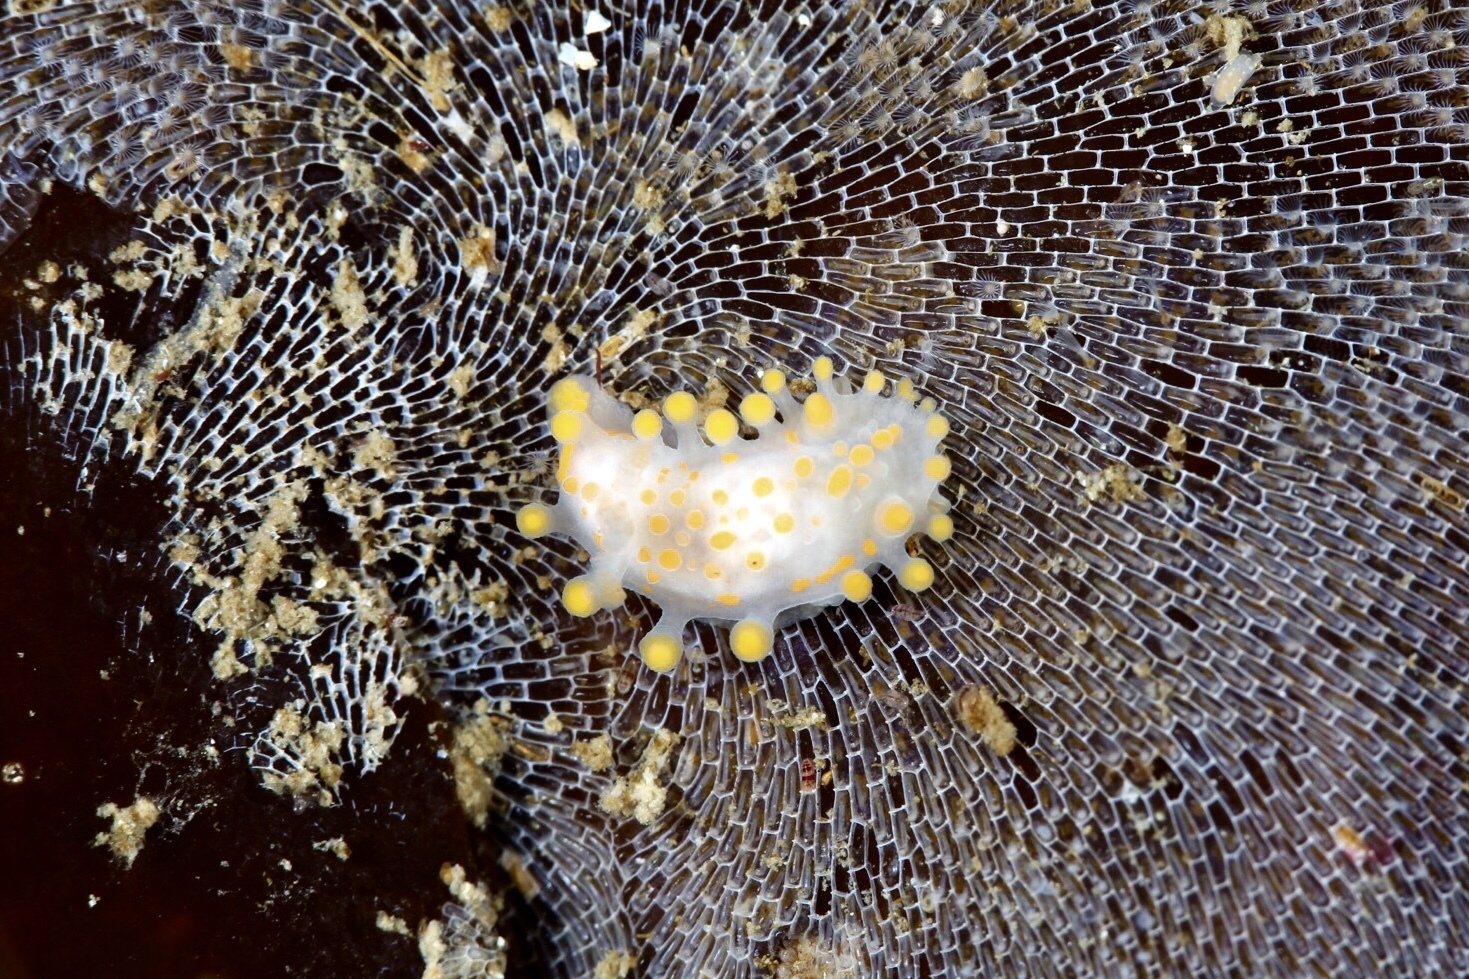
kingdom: Animalia
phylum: Mollusca
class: Gastropoda
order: Nudibranchia
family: Polyceridae
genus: Limacia
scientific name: Limacia clavigera
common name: Orange-clubbed sea slug
